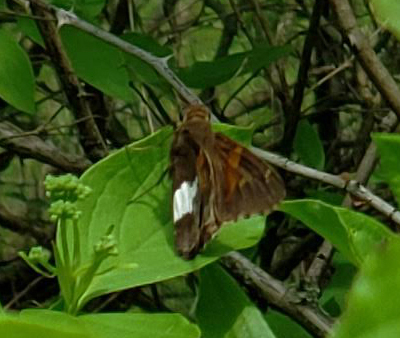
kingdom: Animalia
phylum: Arthropoda
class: Insecta
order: Lepidoptera
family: Hesperiidae
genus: Epargyreus
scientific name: Epargyreus clarus
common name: Silver-spotted skipper
